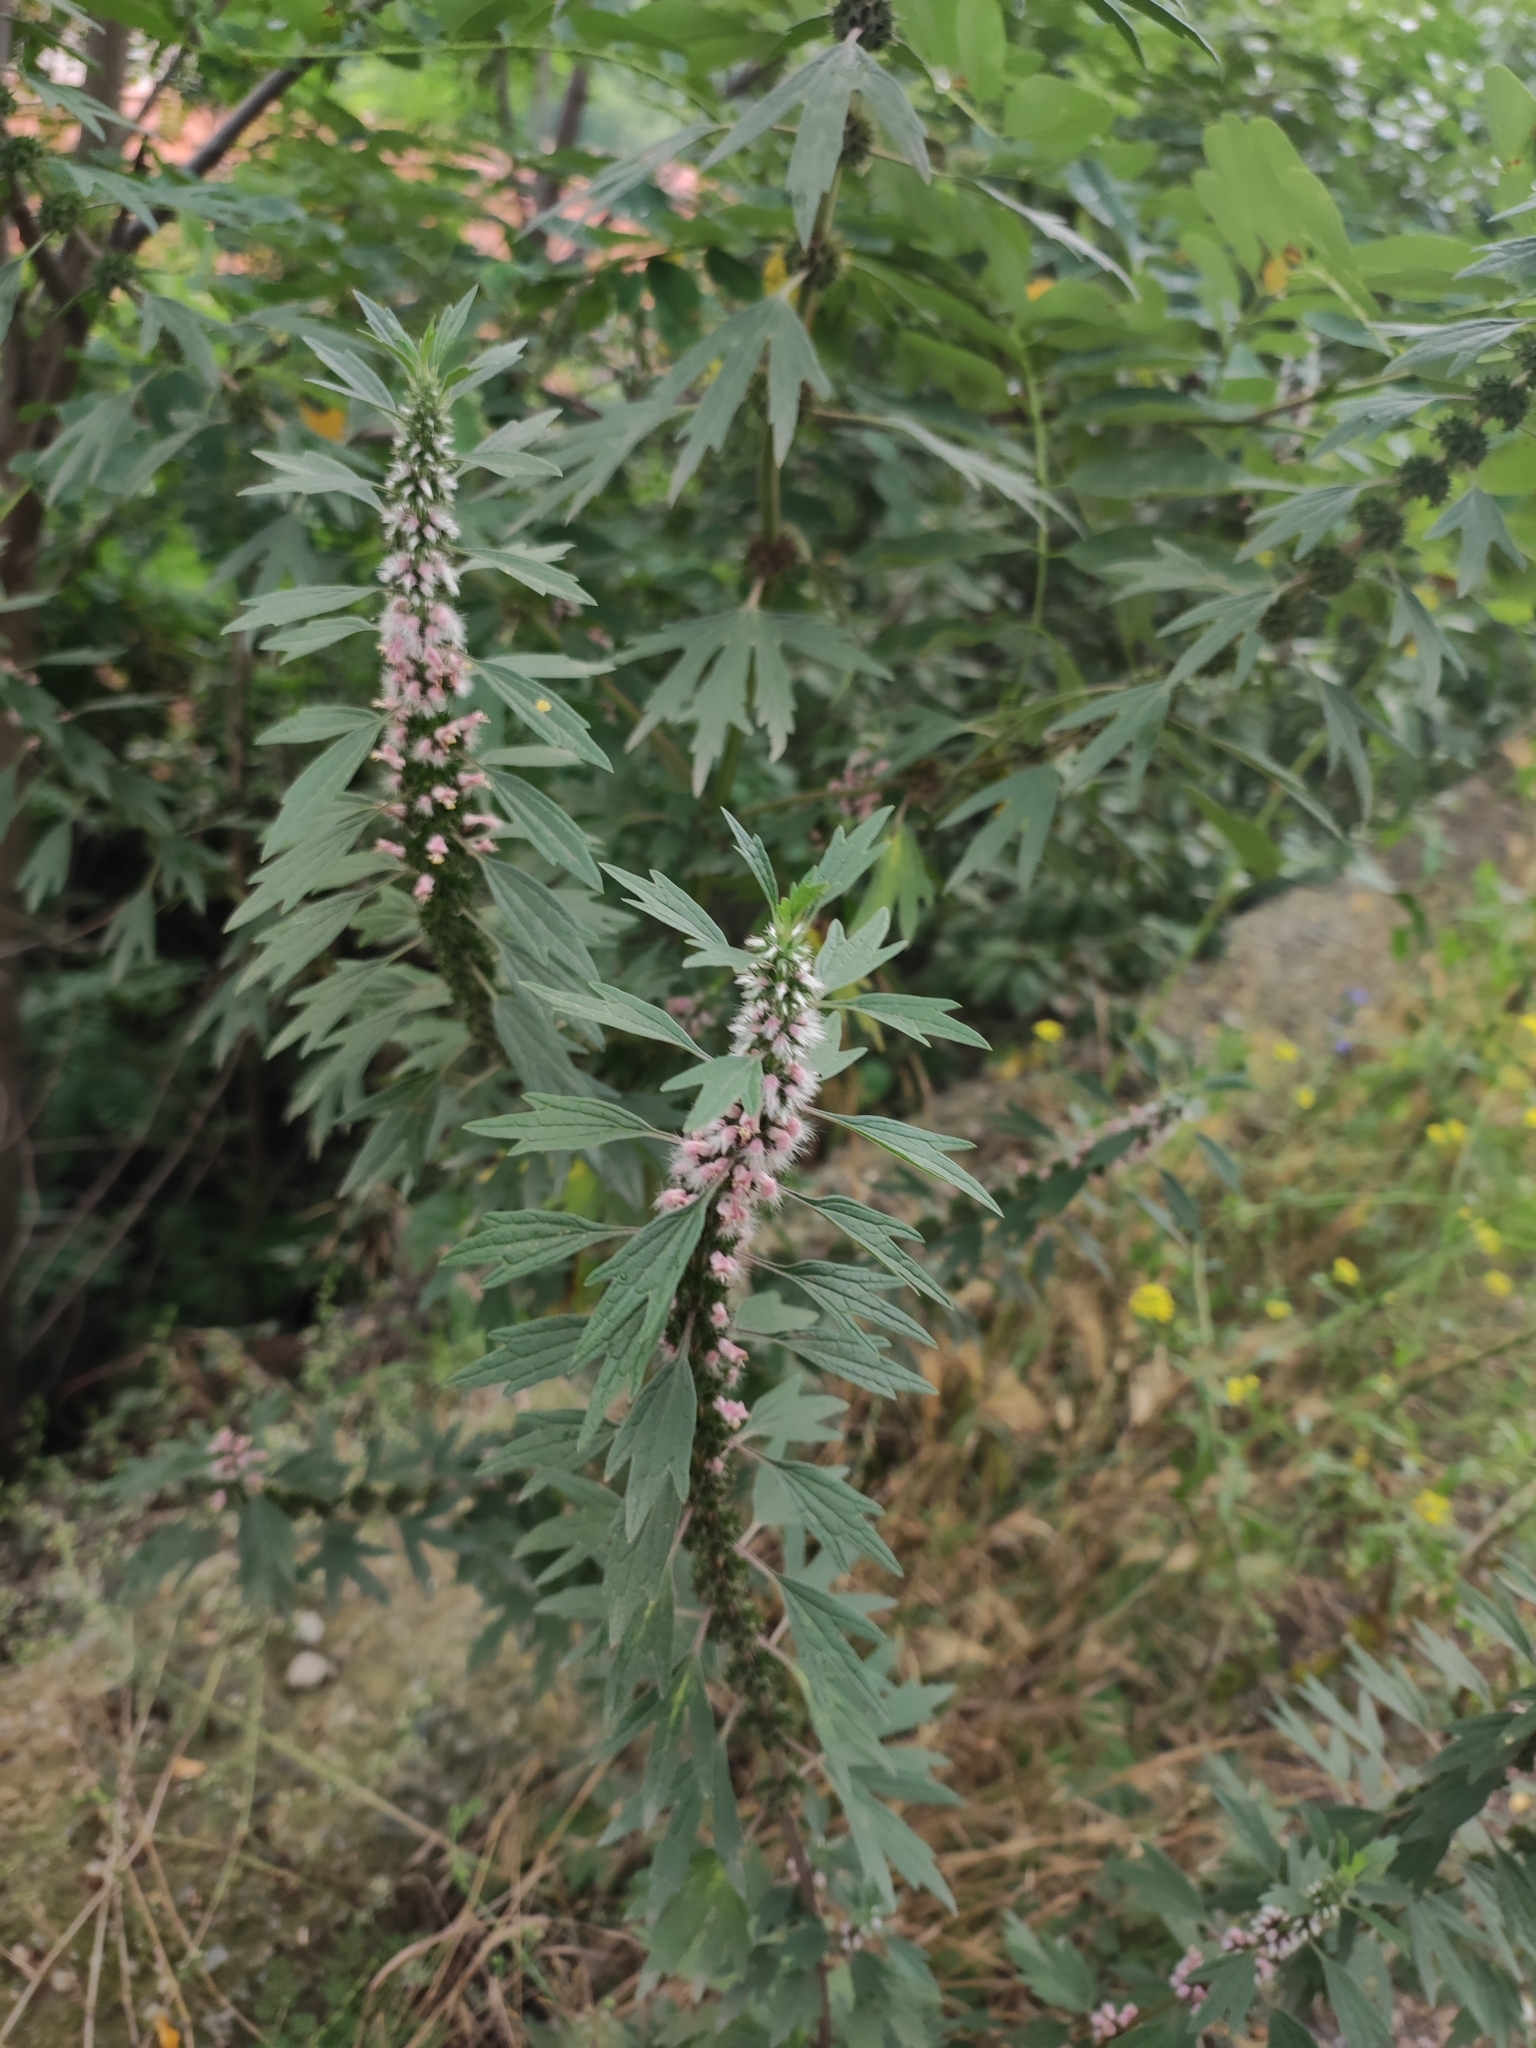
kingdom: Plantae
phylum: Tracheophyta
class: Magnoliopsida
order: Lamiales
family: Lamiaceae
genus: Leonurus
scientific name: Leonurus quinquelobatus
